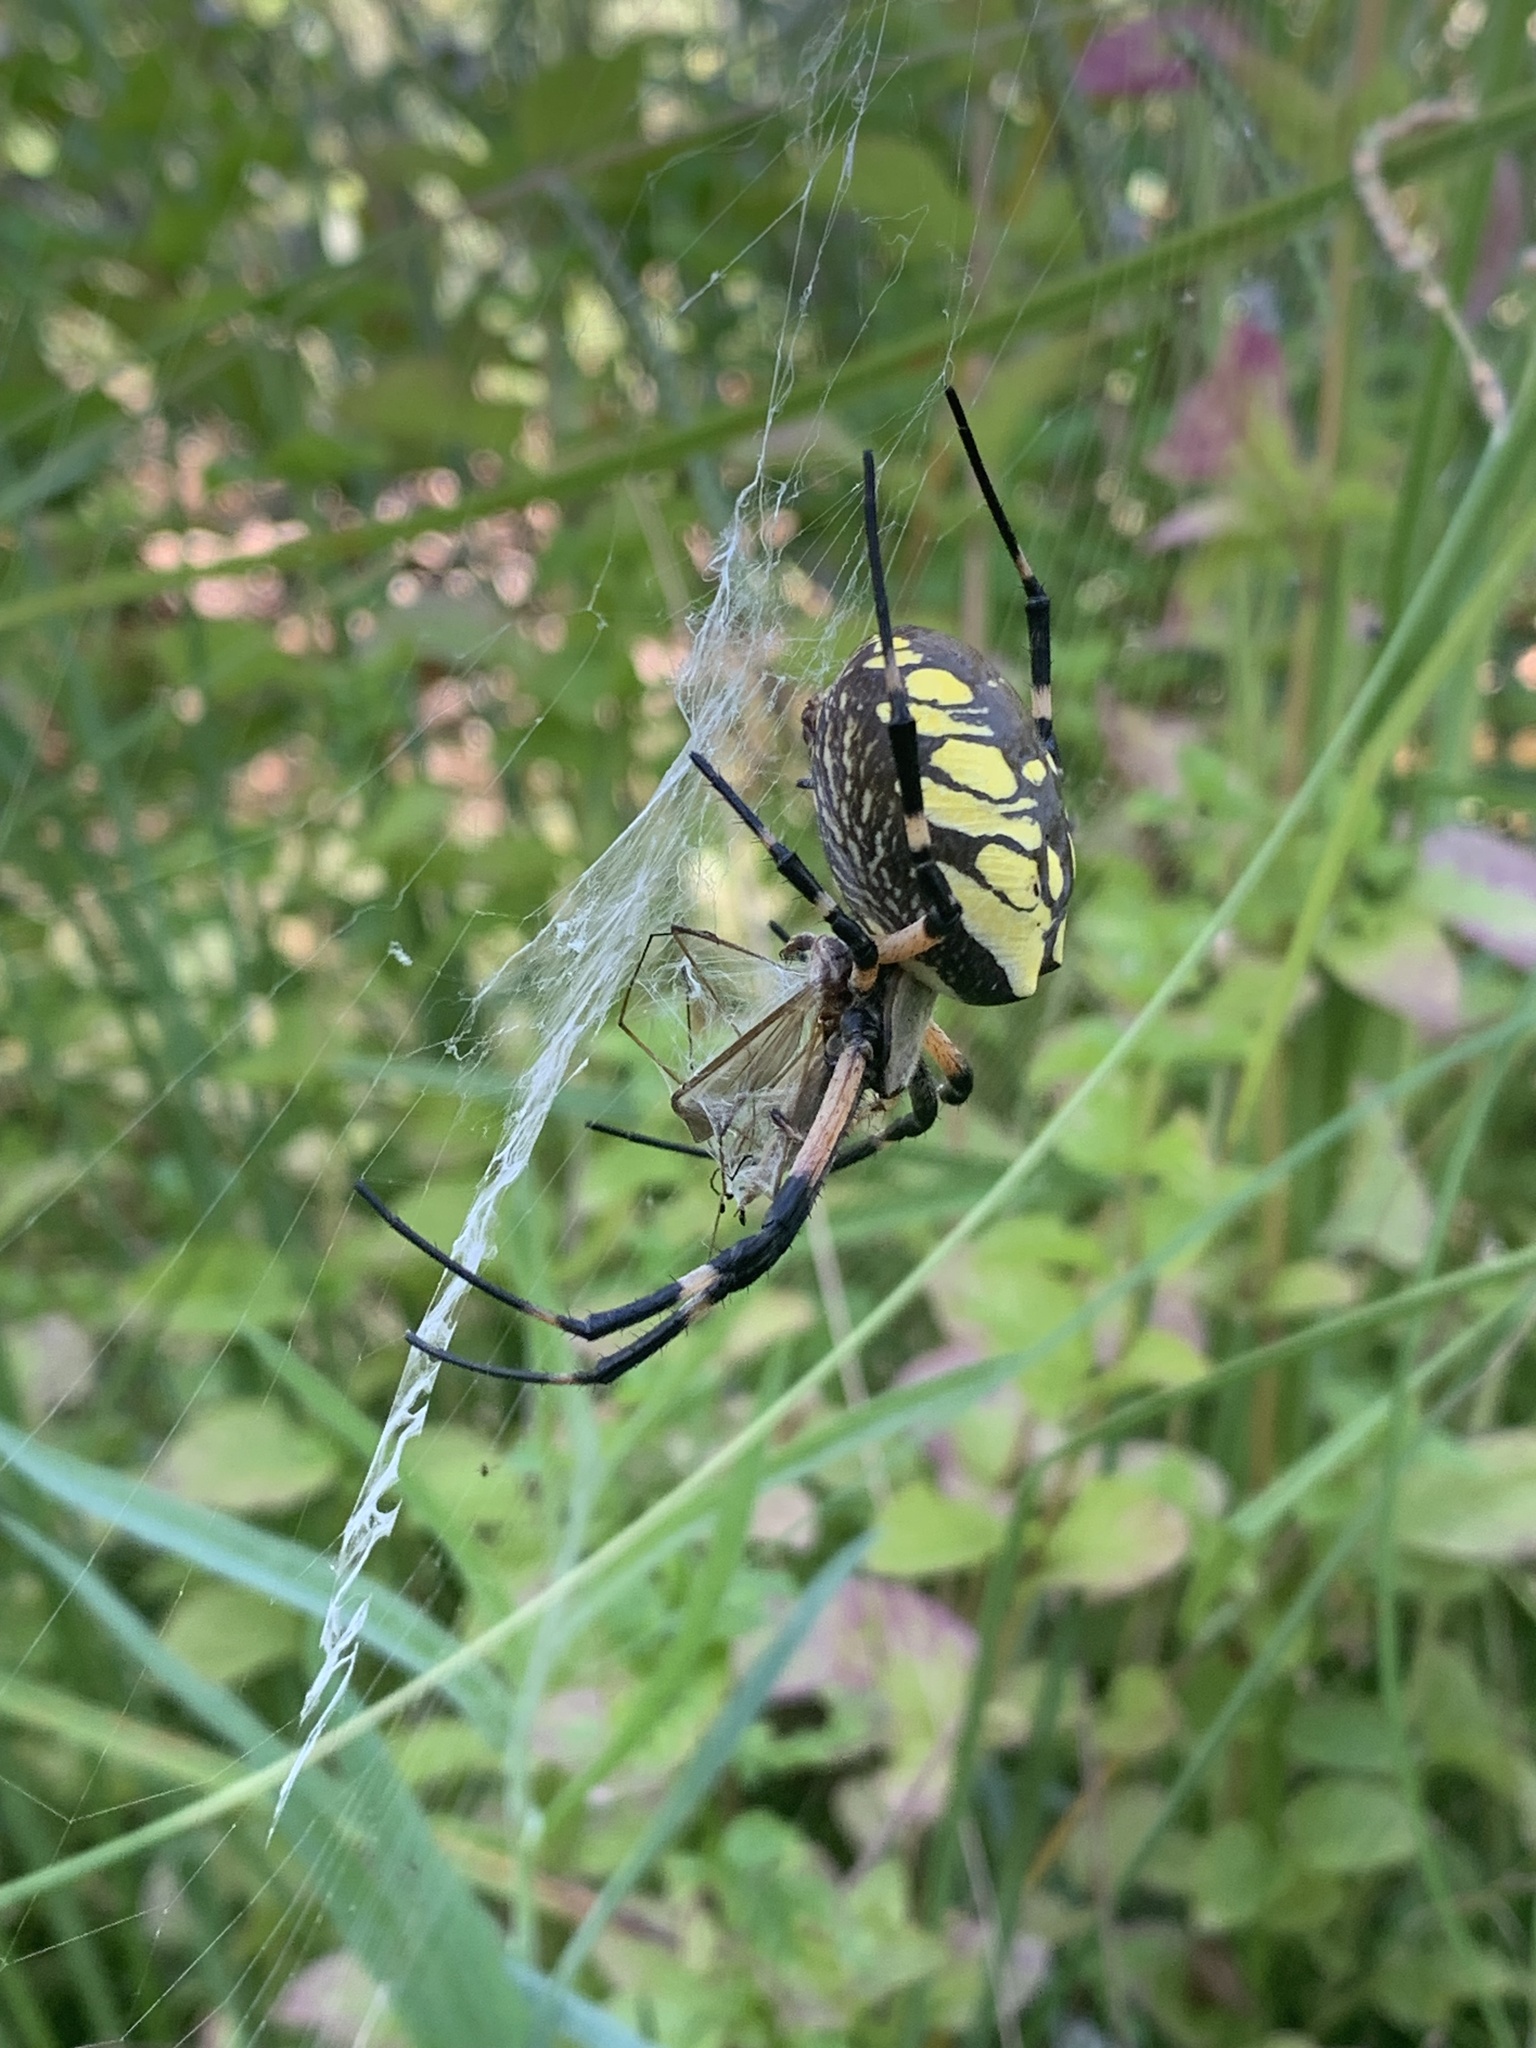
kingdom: Animalia
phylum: Arthropoda
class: Arachnida
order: Araneae
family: Araneidae
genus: Argiope
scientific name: Argiope aurantia
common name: Orb weavers
